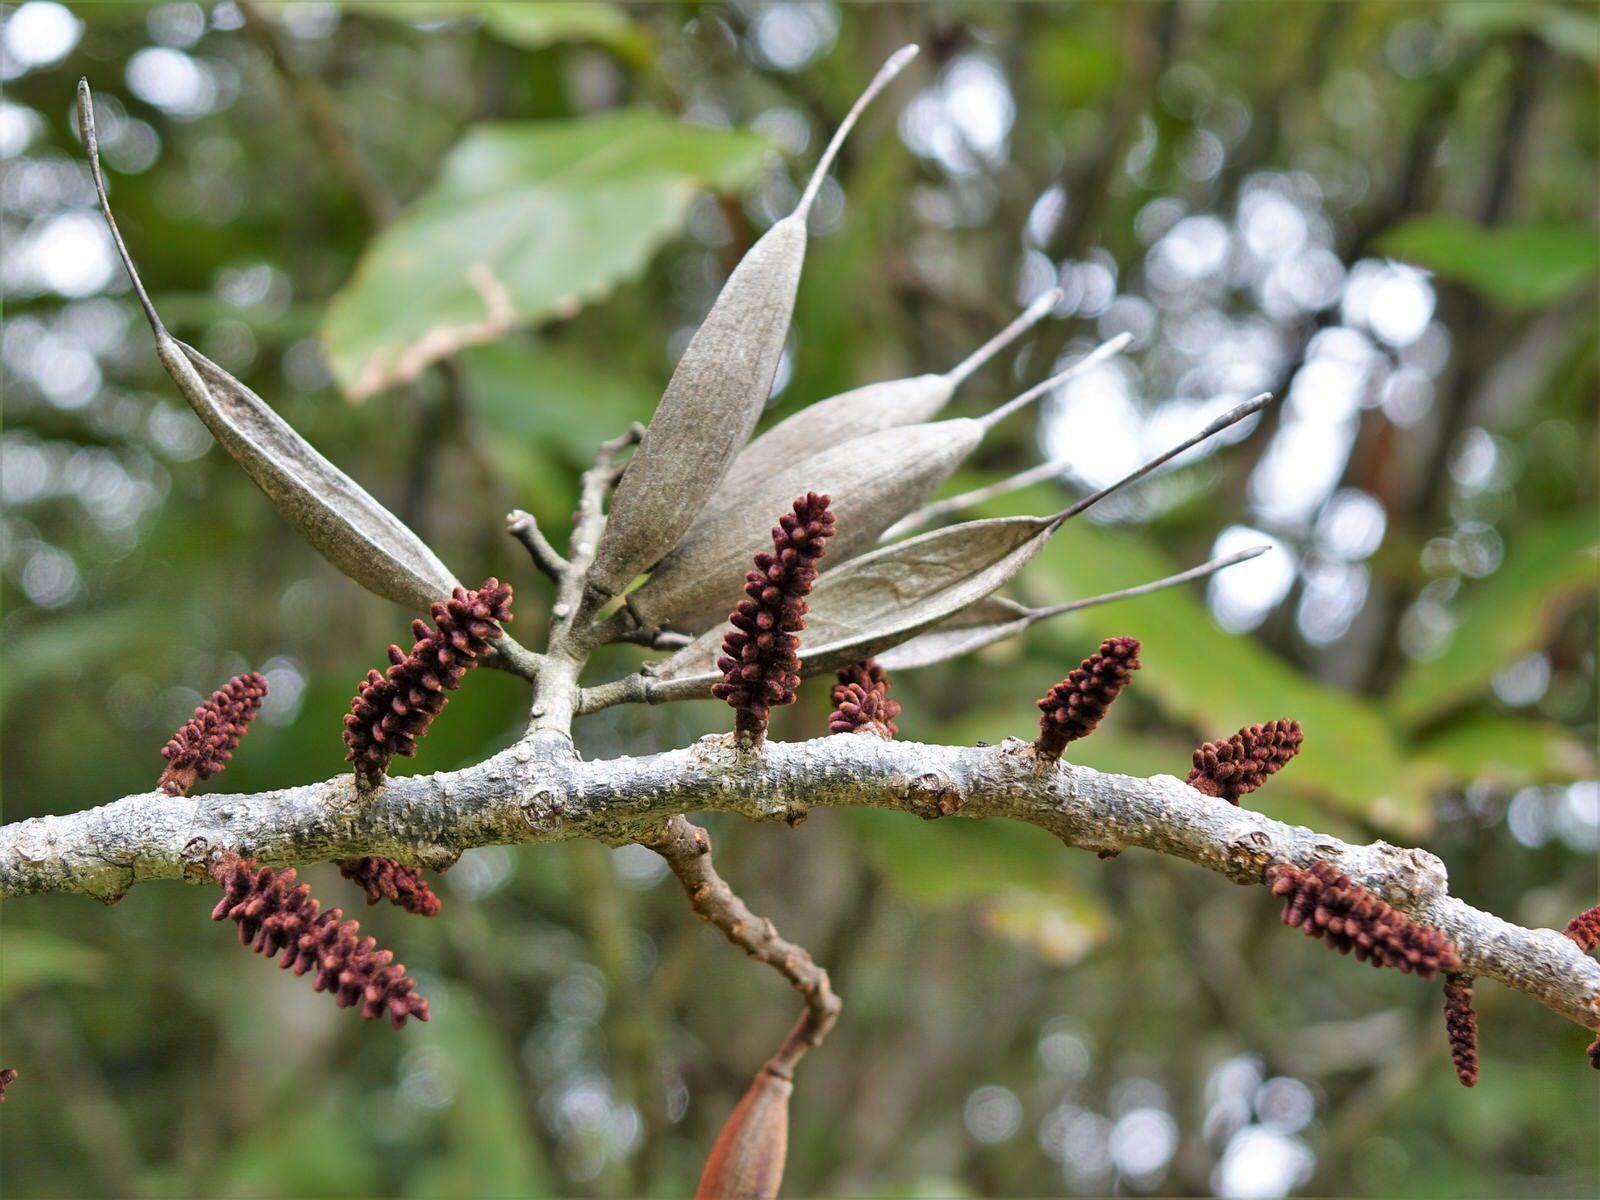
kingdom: Plantae
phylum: Tracheophyta
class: Magnoliopsida
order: Proteales
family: Proteaceae
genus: Knightia
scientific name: Knightia excelsa
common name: New zealand-honeysuckle
